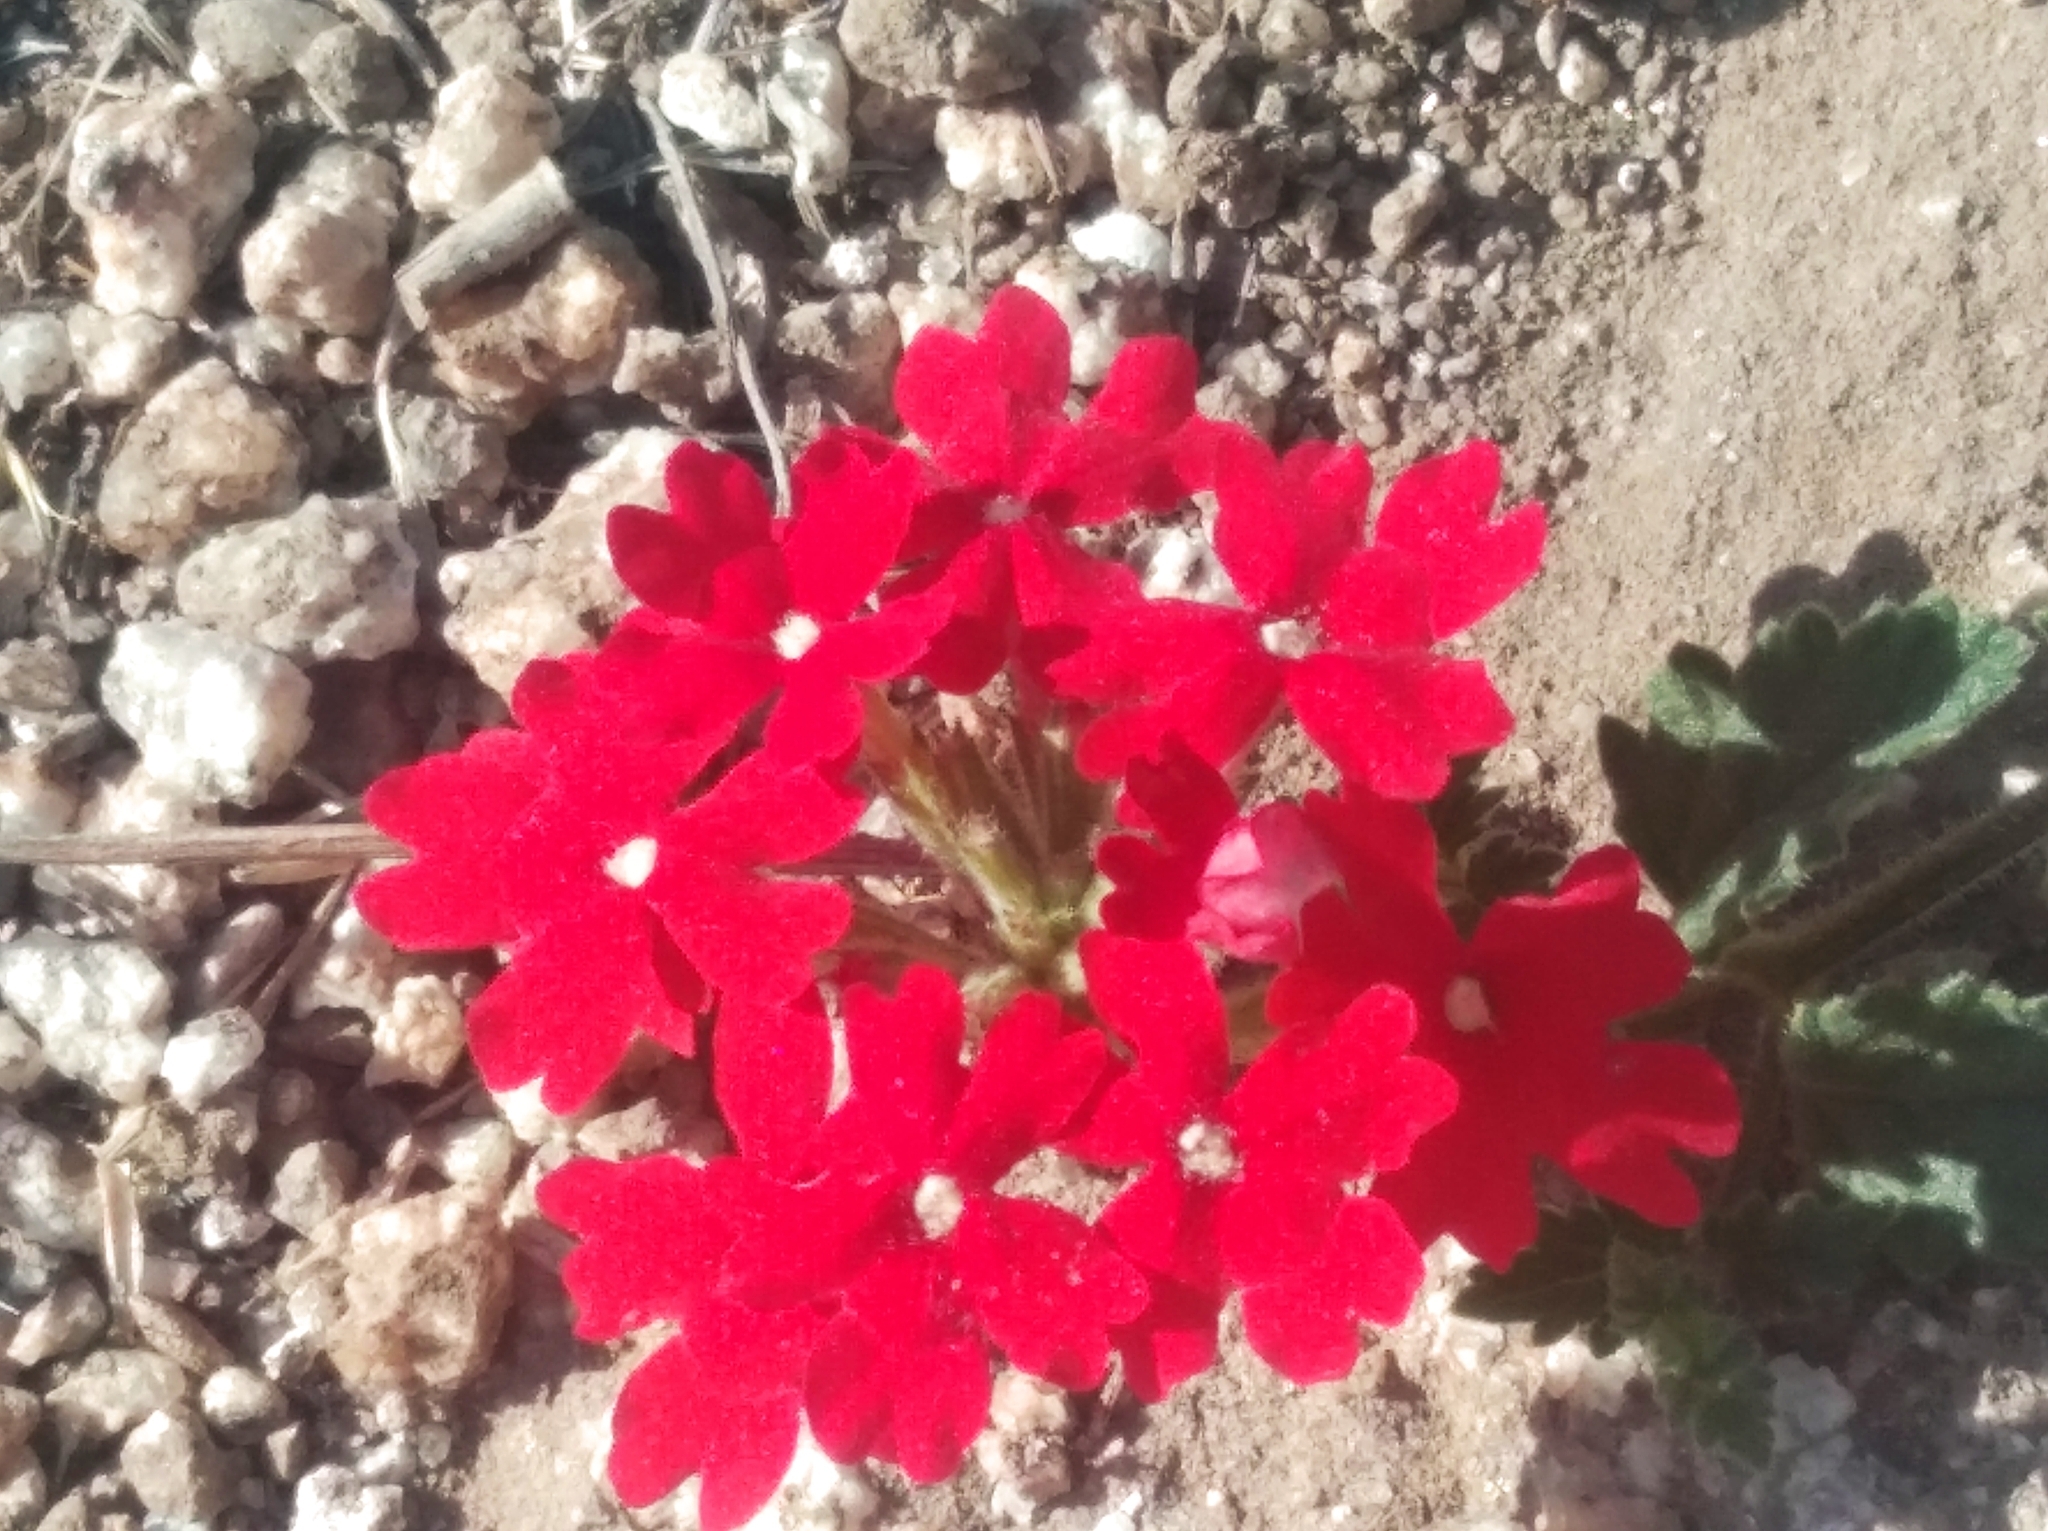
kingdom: Plantae
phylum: Tracheophyta
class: Magnoliopsida
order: Lamiales
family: Verbenaceae
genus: Verbena
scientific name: Verbena peruviana
